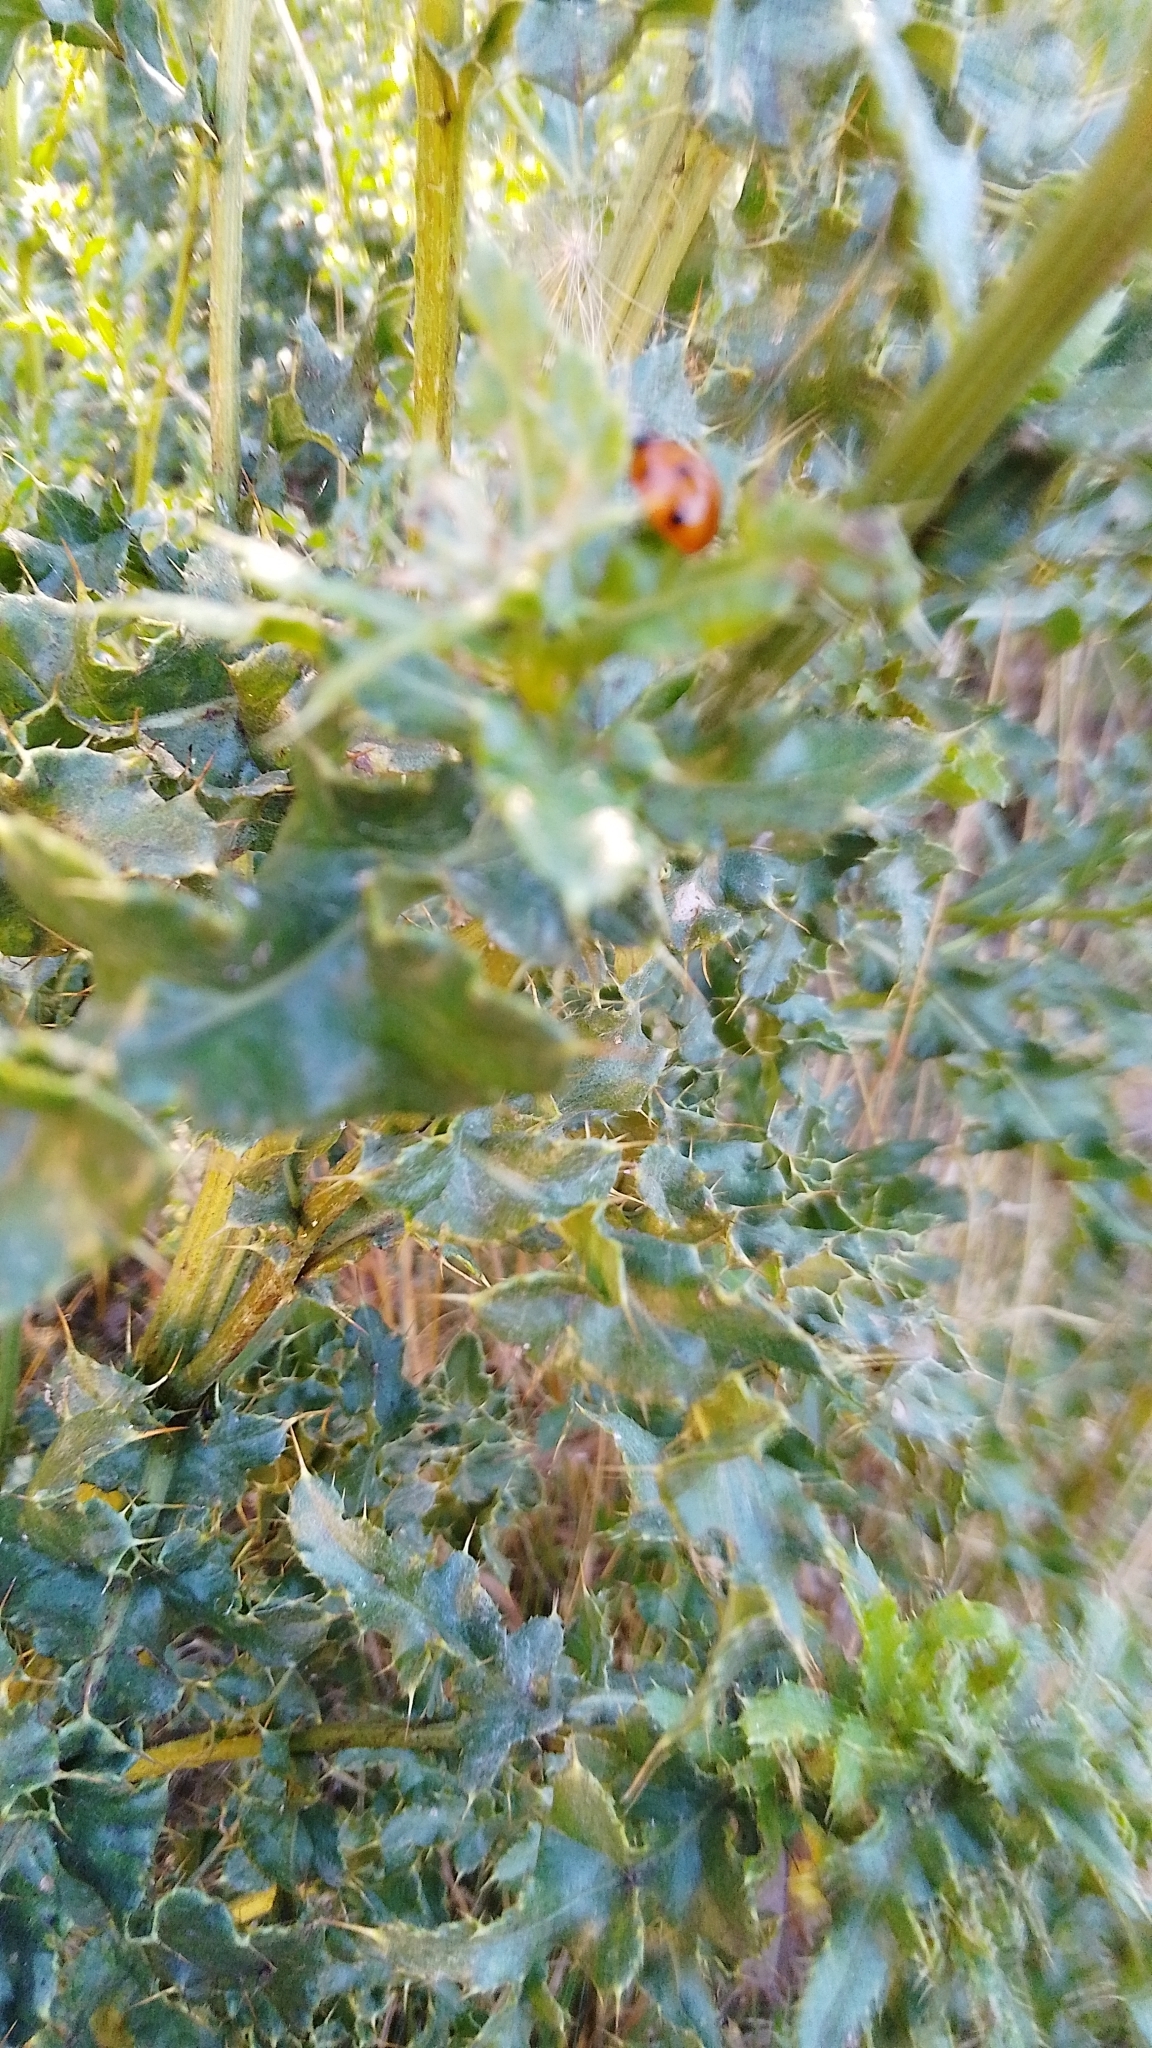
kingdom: Animalia
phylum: Arthropoda
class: Insecta
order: Coleoptera
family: Coccinellidae
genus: Coccinella
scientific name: Coccinella septempunctata
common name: Sevenspotted lady beetle
